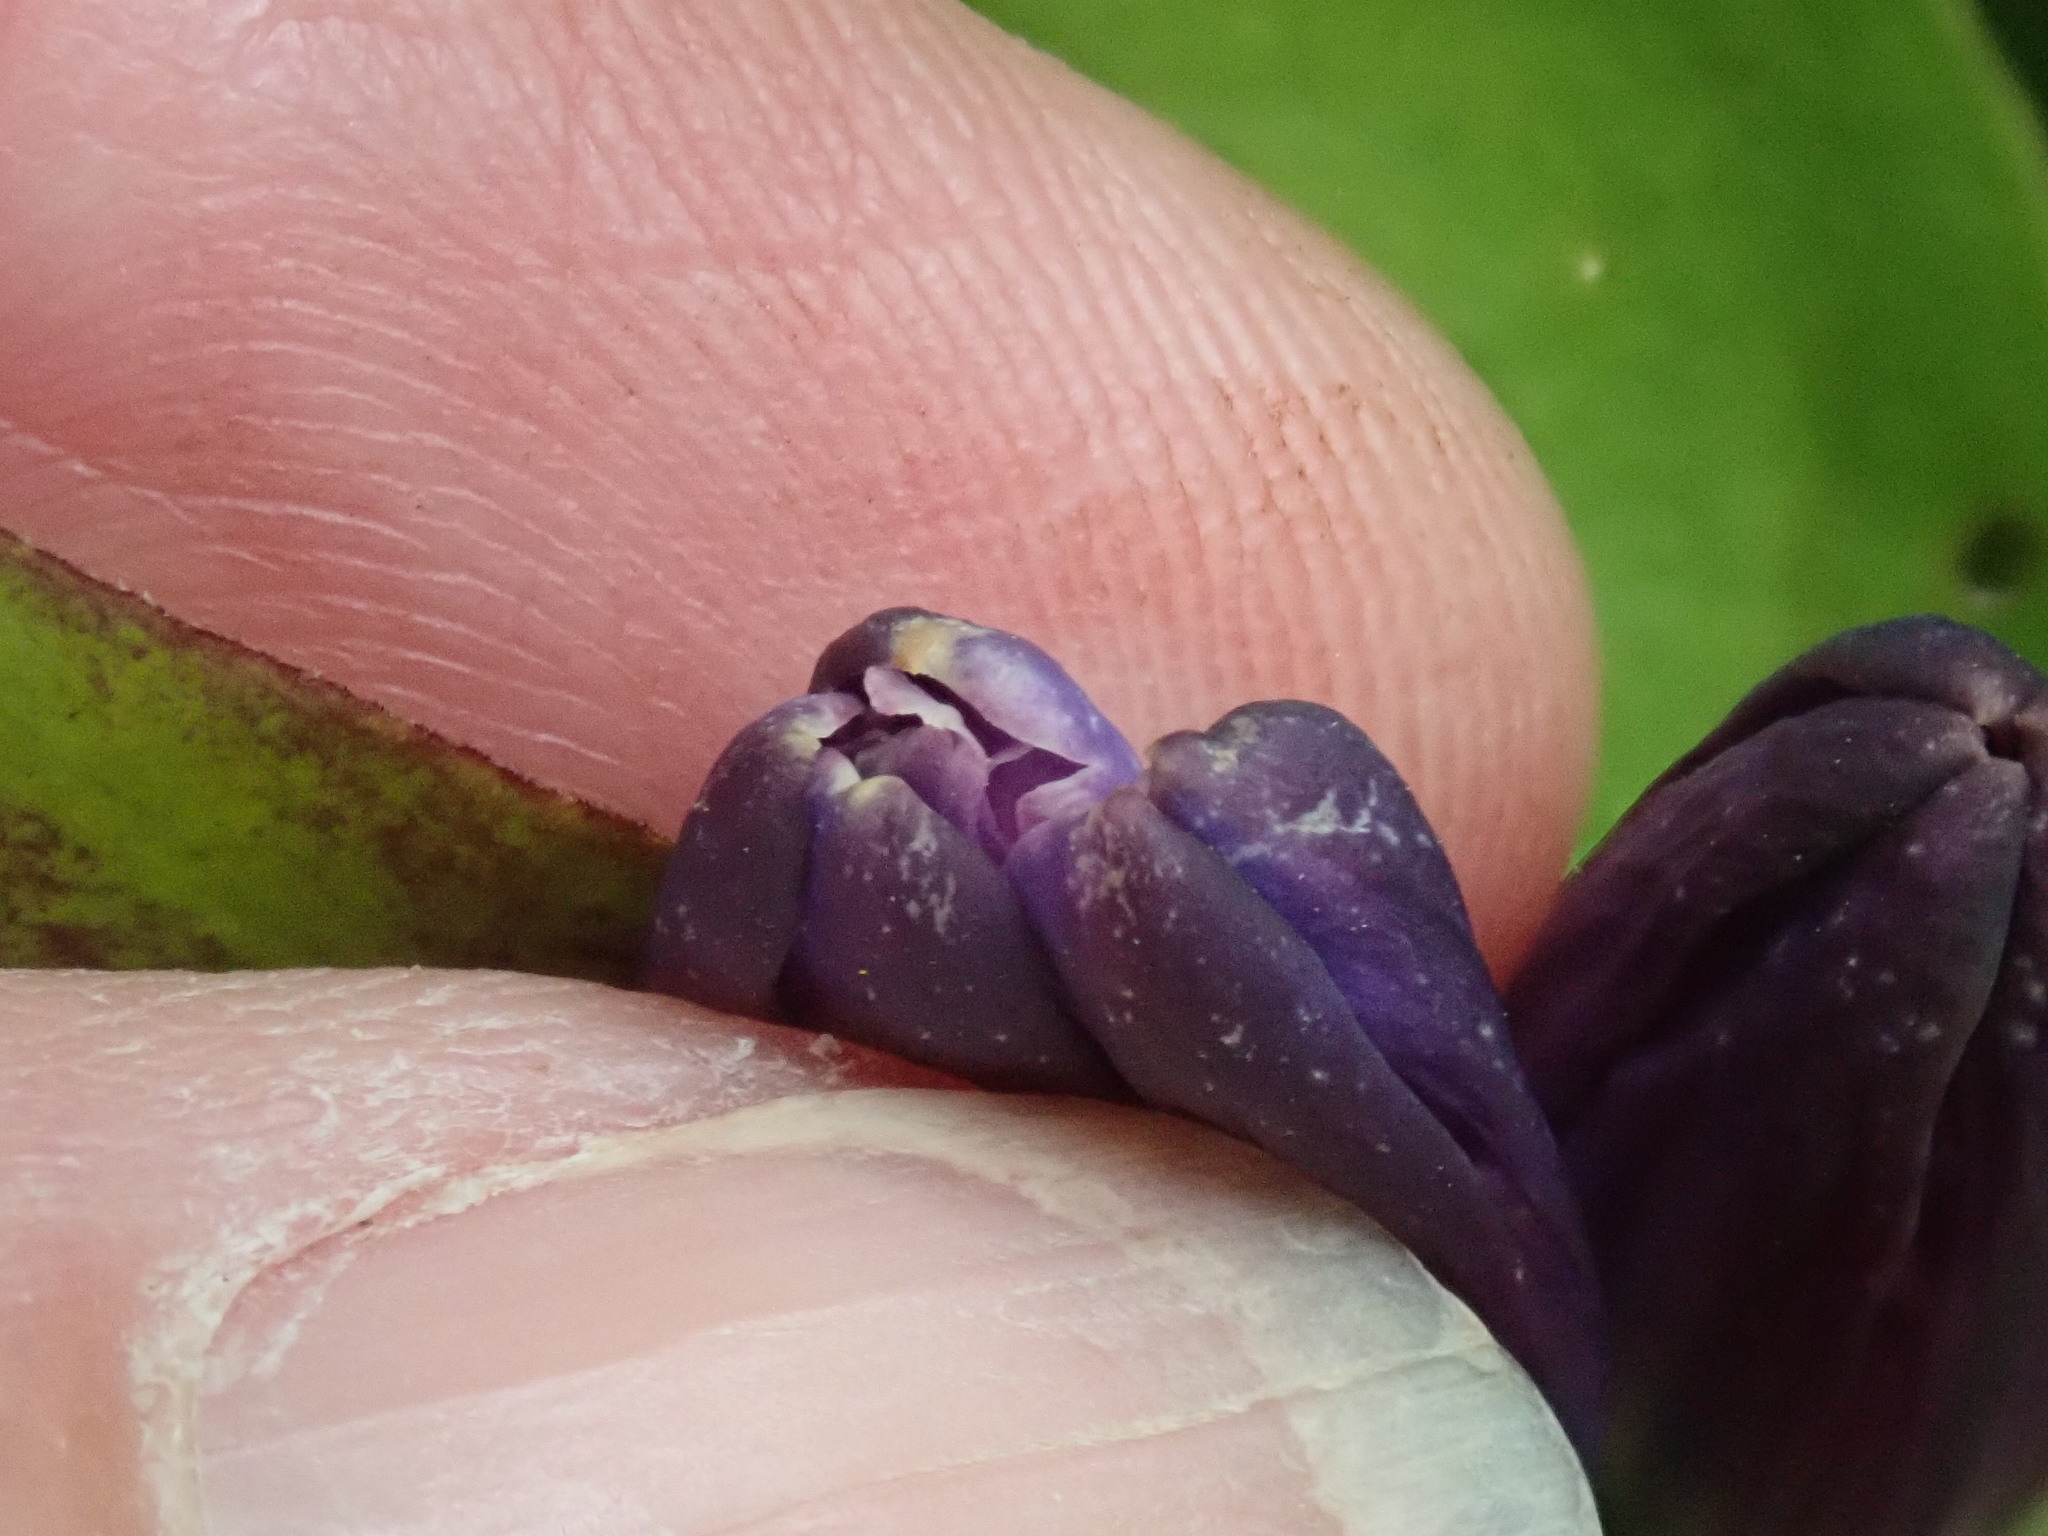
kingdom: Plantae
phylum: Tracheophyta
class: Magnoliopsida
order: Gentianales
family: Gentianaceae
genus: Gentiana
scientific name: Gentiana clausa
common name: Blind gentian
